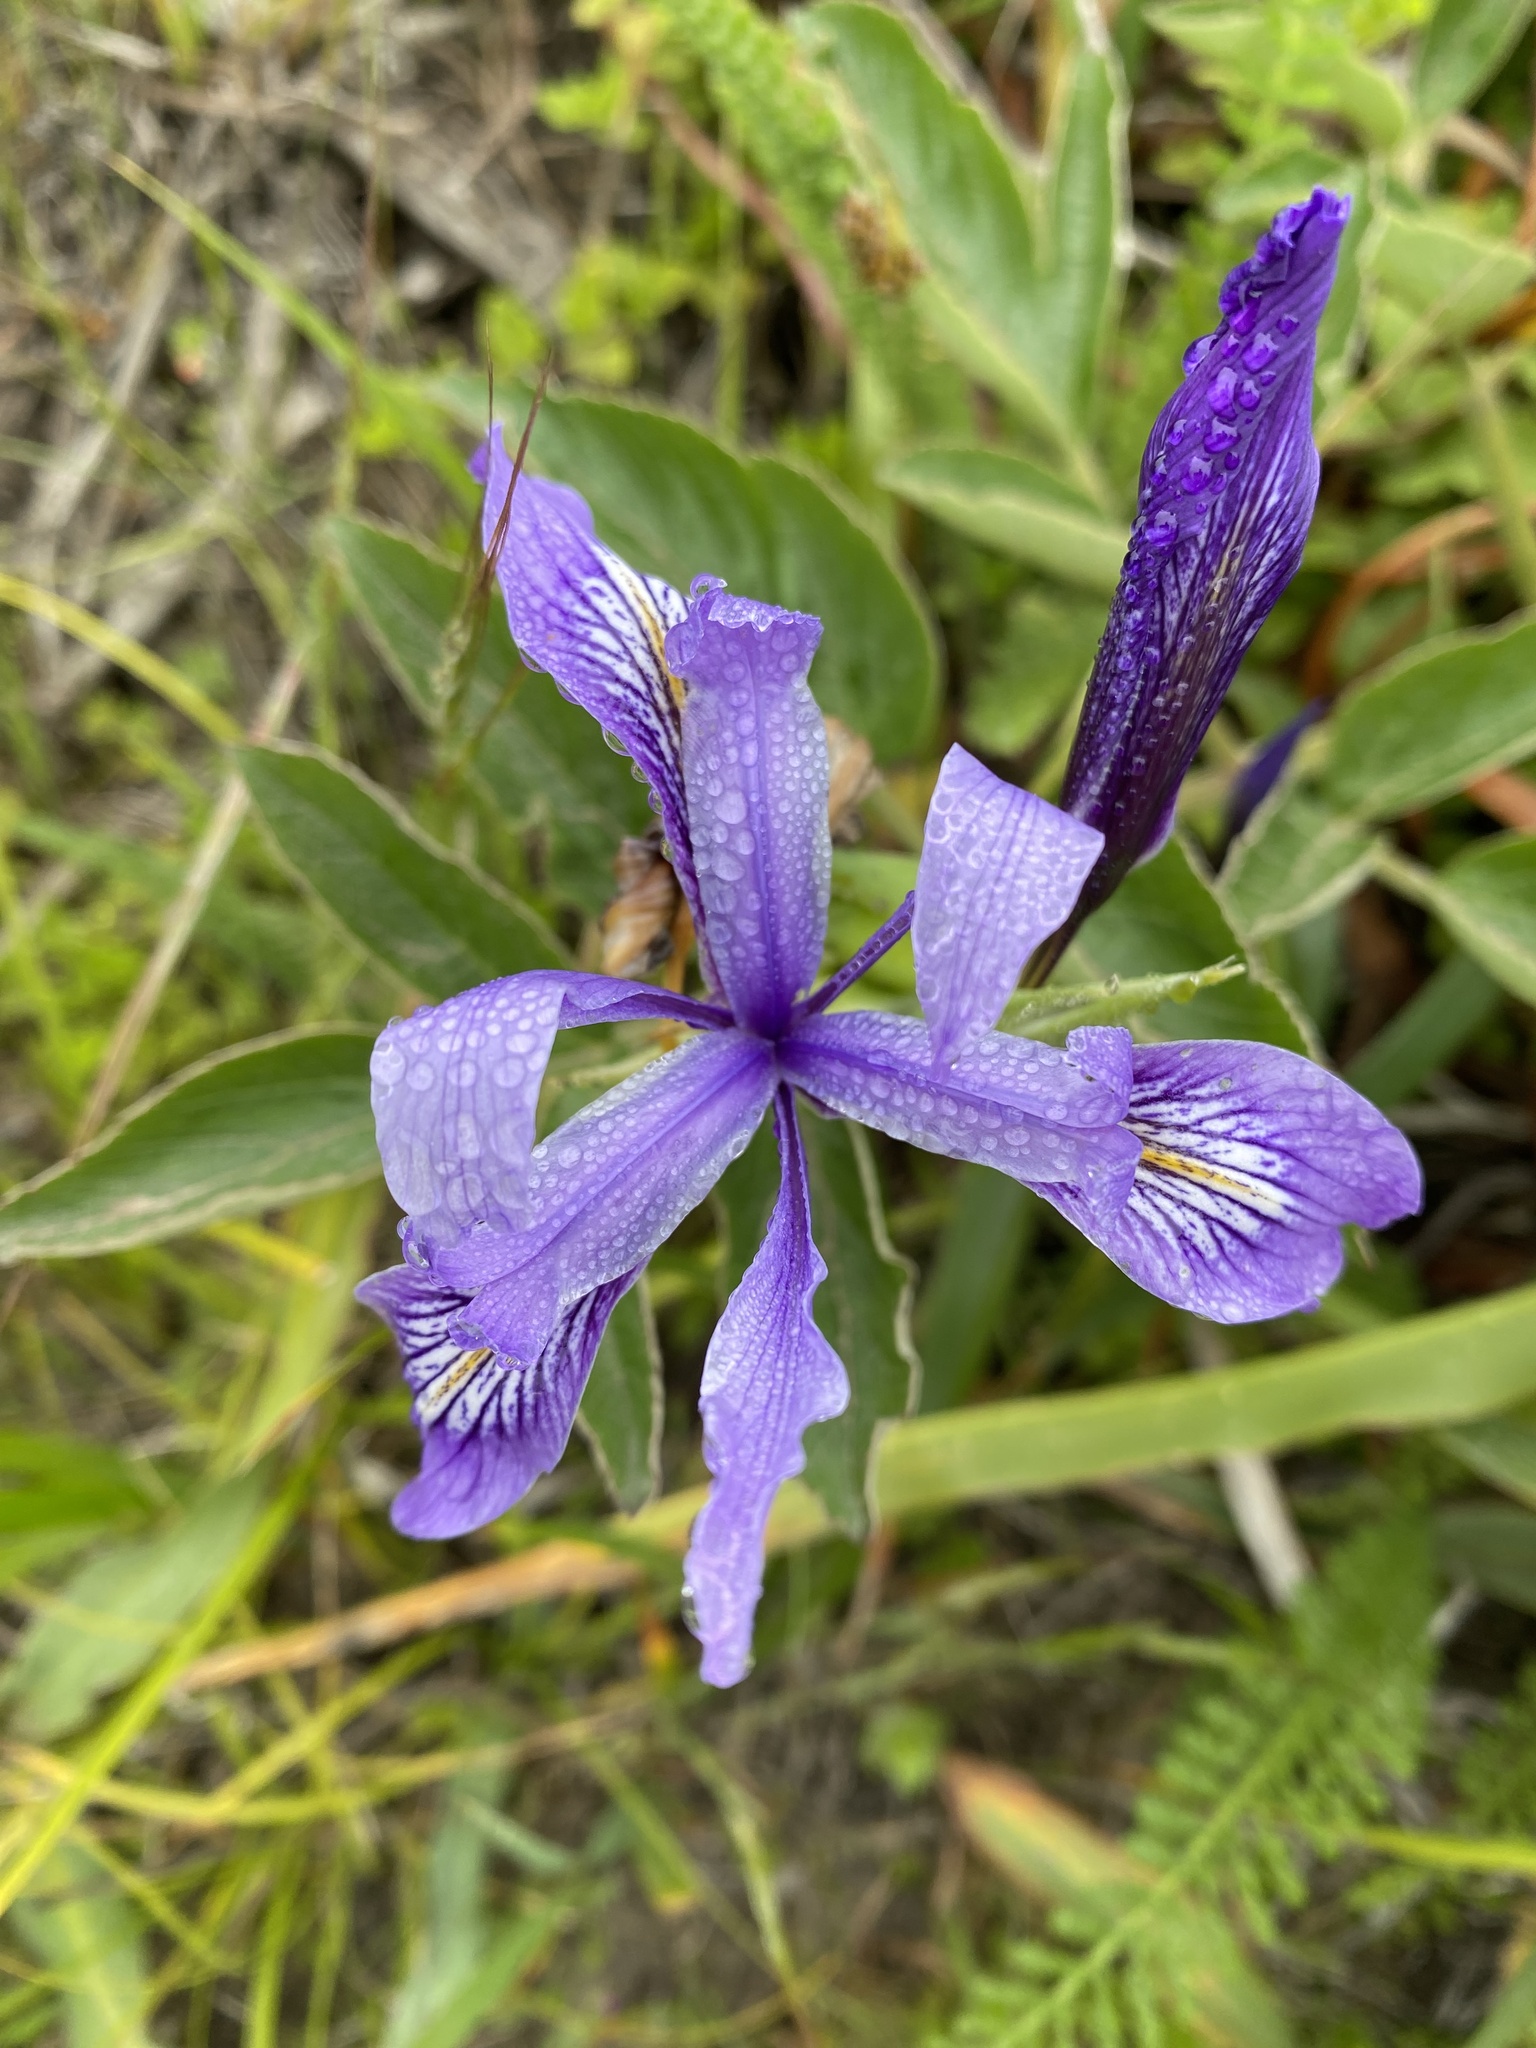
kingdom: Plantae
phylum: Tracheophyta
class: Liliopsida
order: Asparagales
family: Iridaceae
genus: Iris
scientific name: Iris douglasiana
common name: Marin iris
